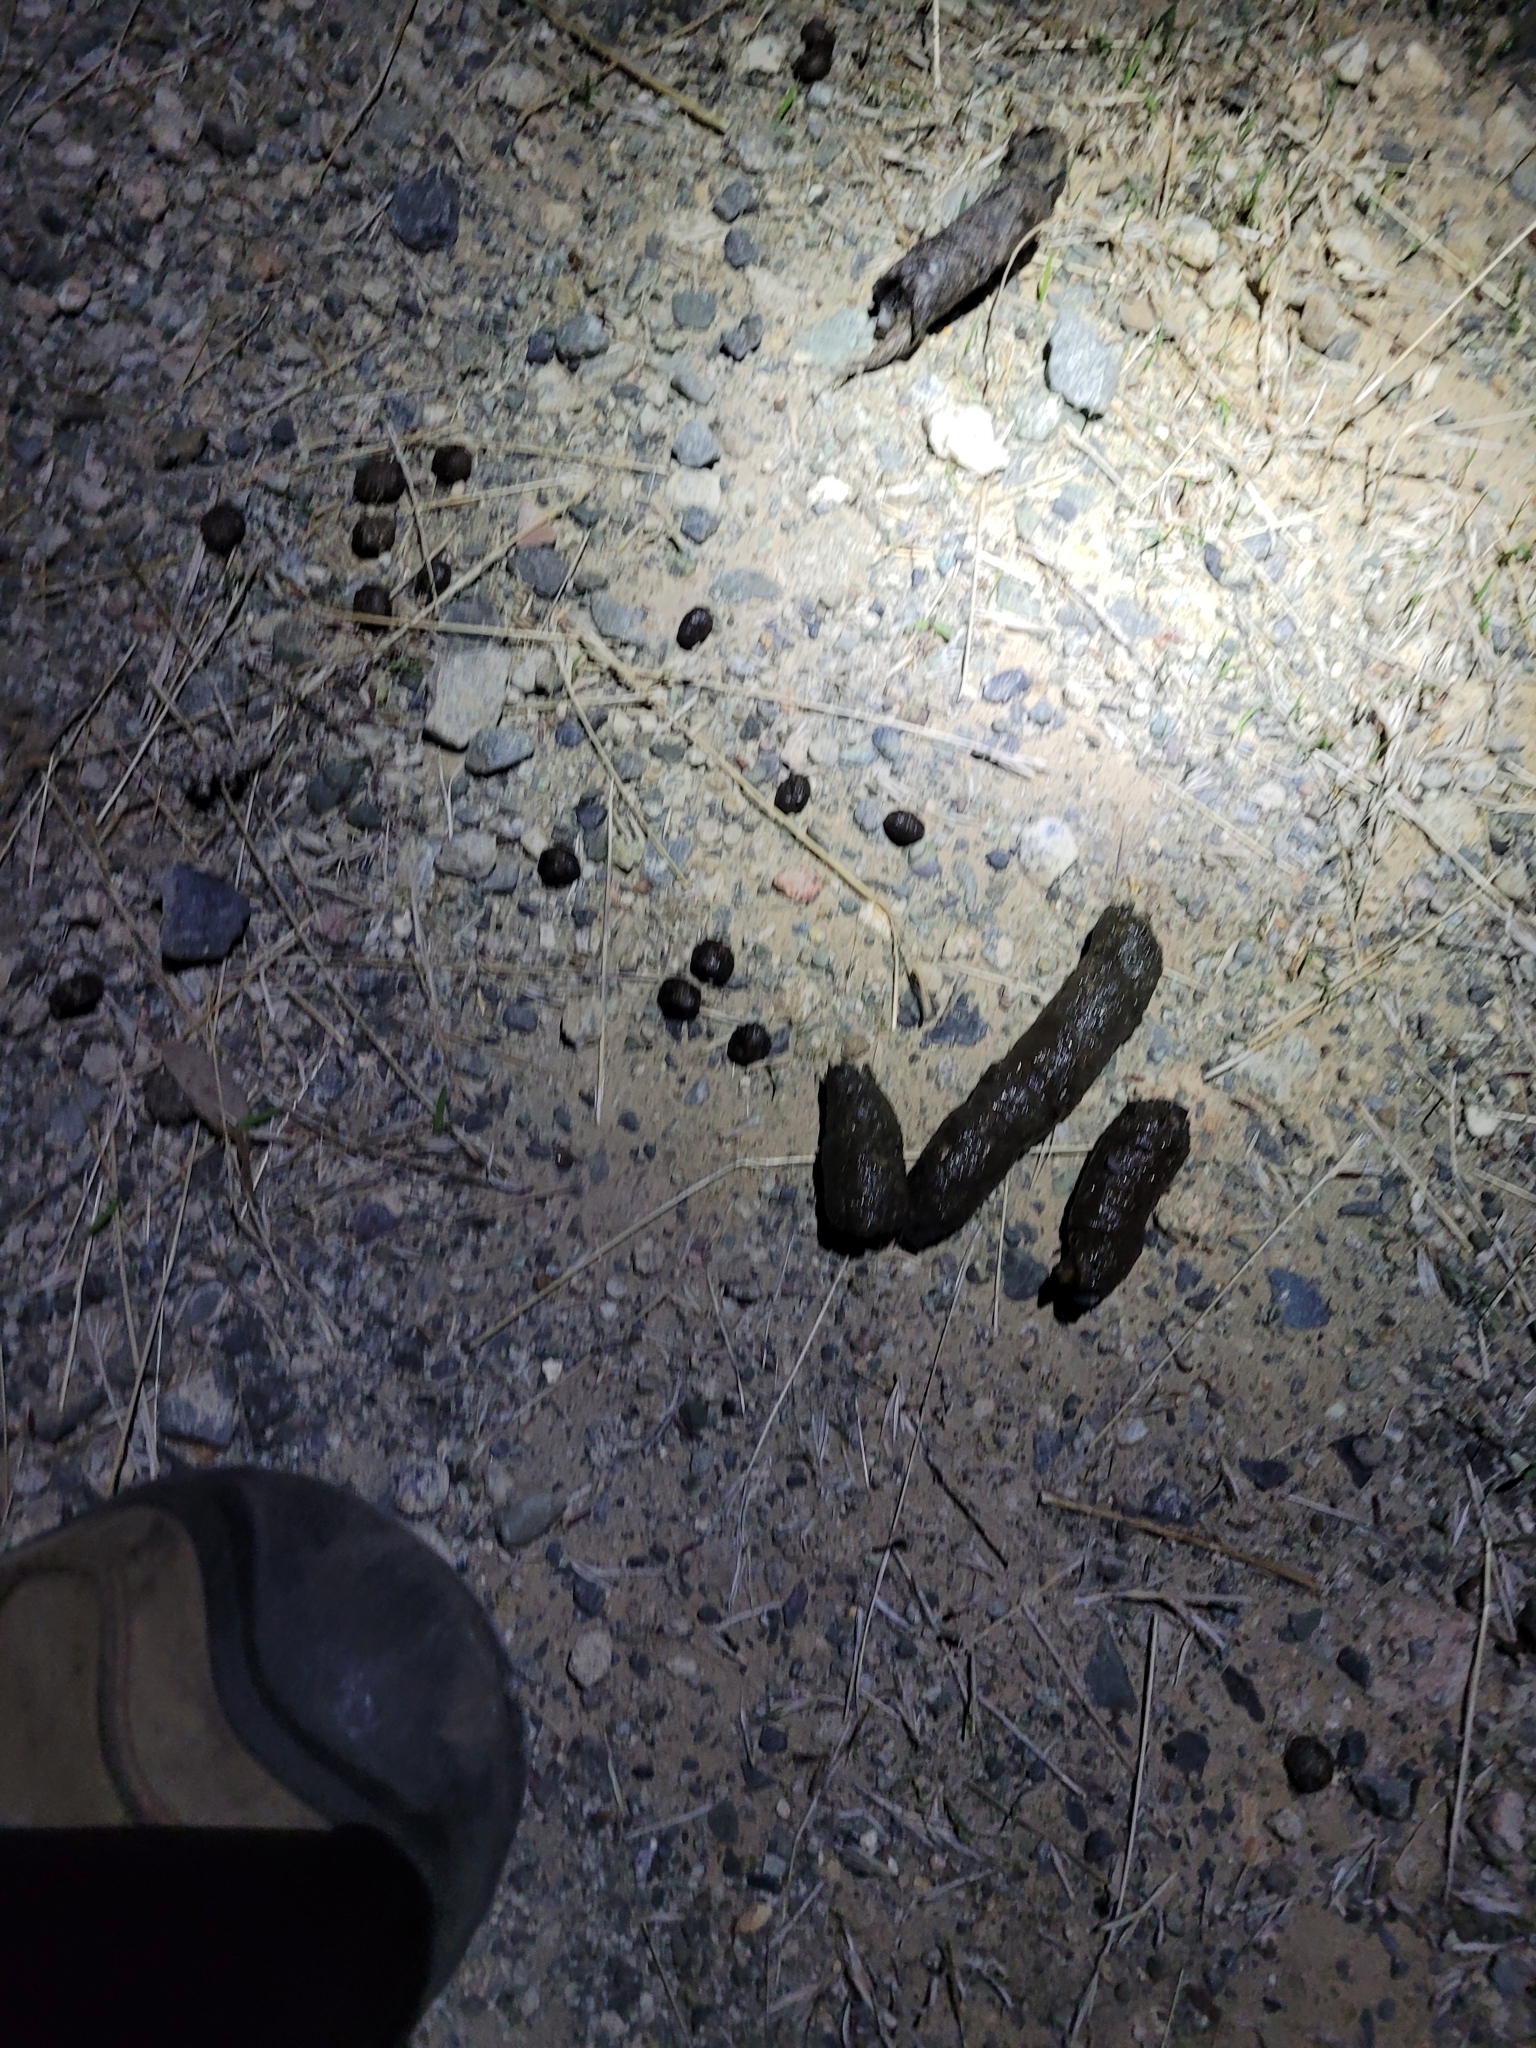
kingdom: Animalia
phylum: Chordata
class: Mammalia
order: Carnivora
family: Felidae
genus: Lynx
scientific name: Lynx rufus
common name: Bobcat
